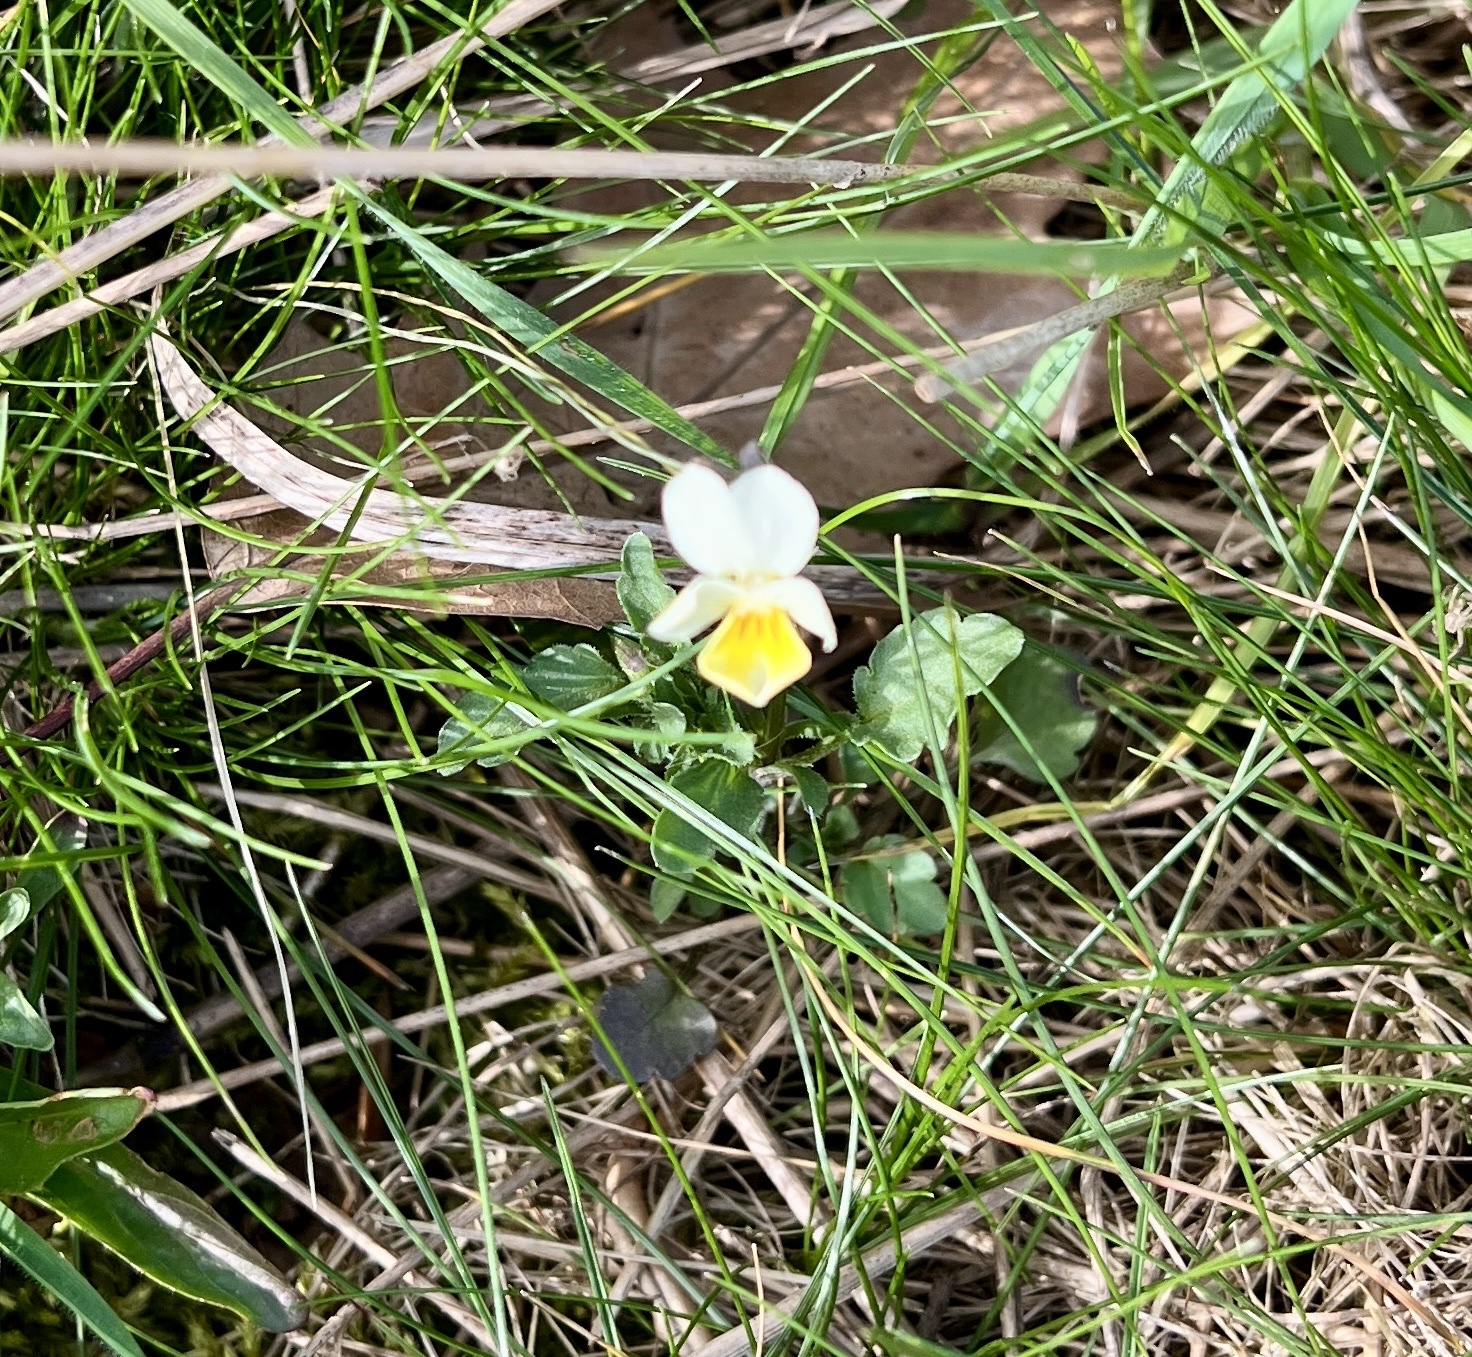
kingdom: Plantae
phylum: Tracheophyta
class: Magnoliopsida
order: Malpighiales
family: Violaceae
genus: Viola
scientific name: Viola arvensis
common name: Field pansy
